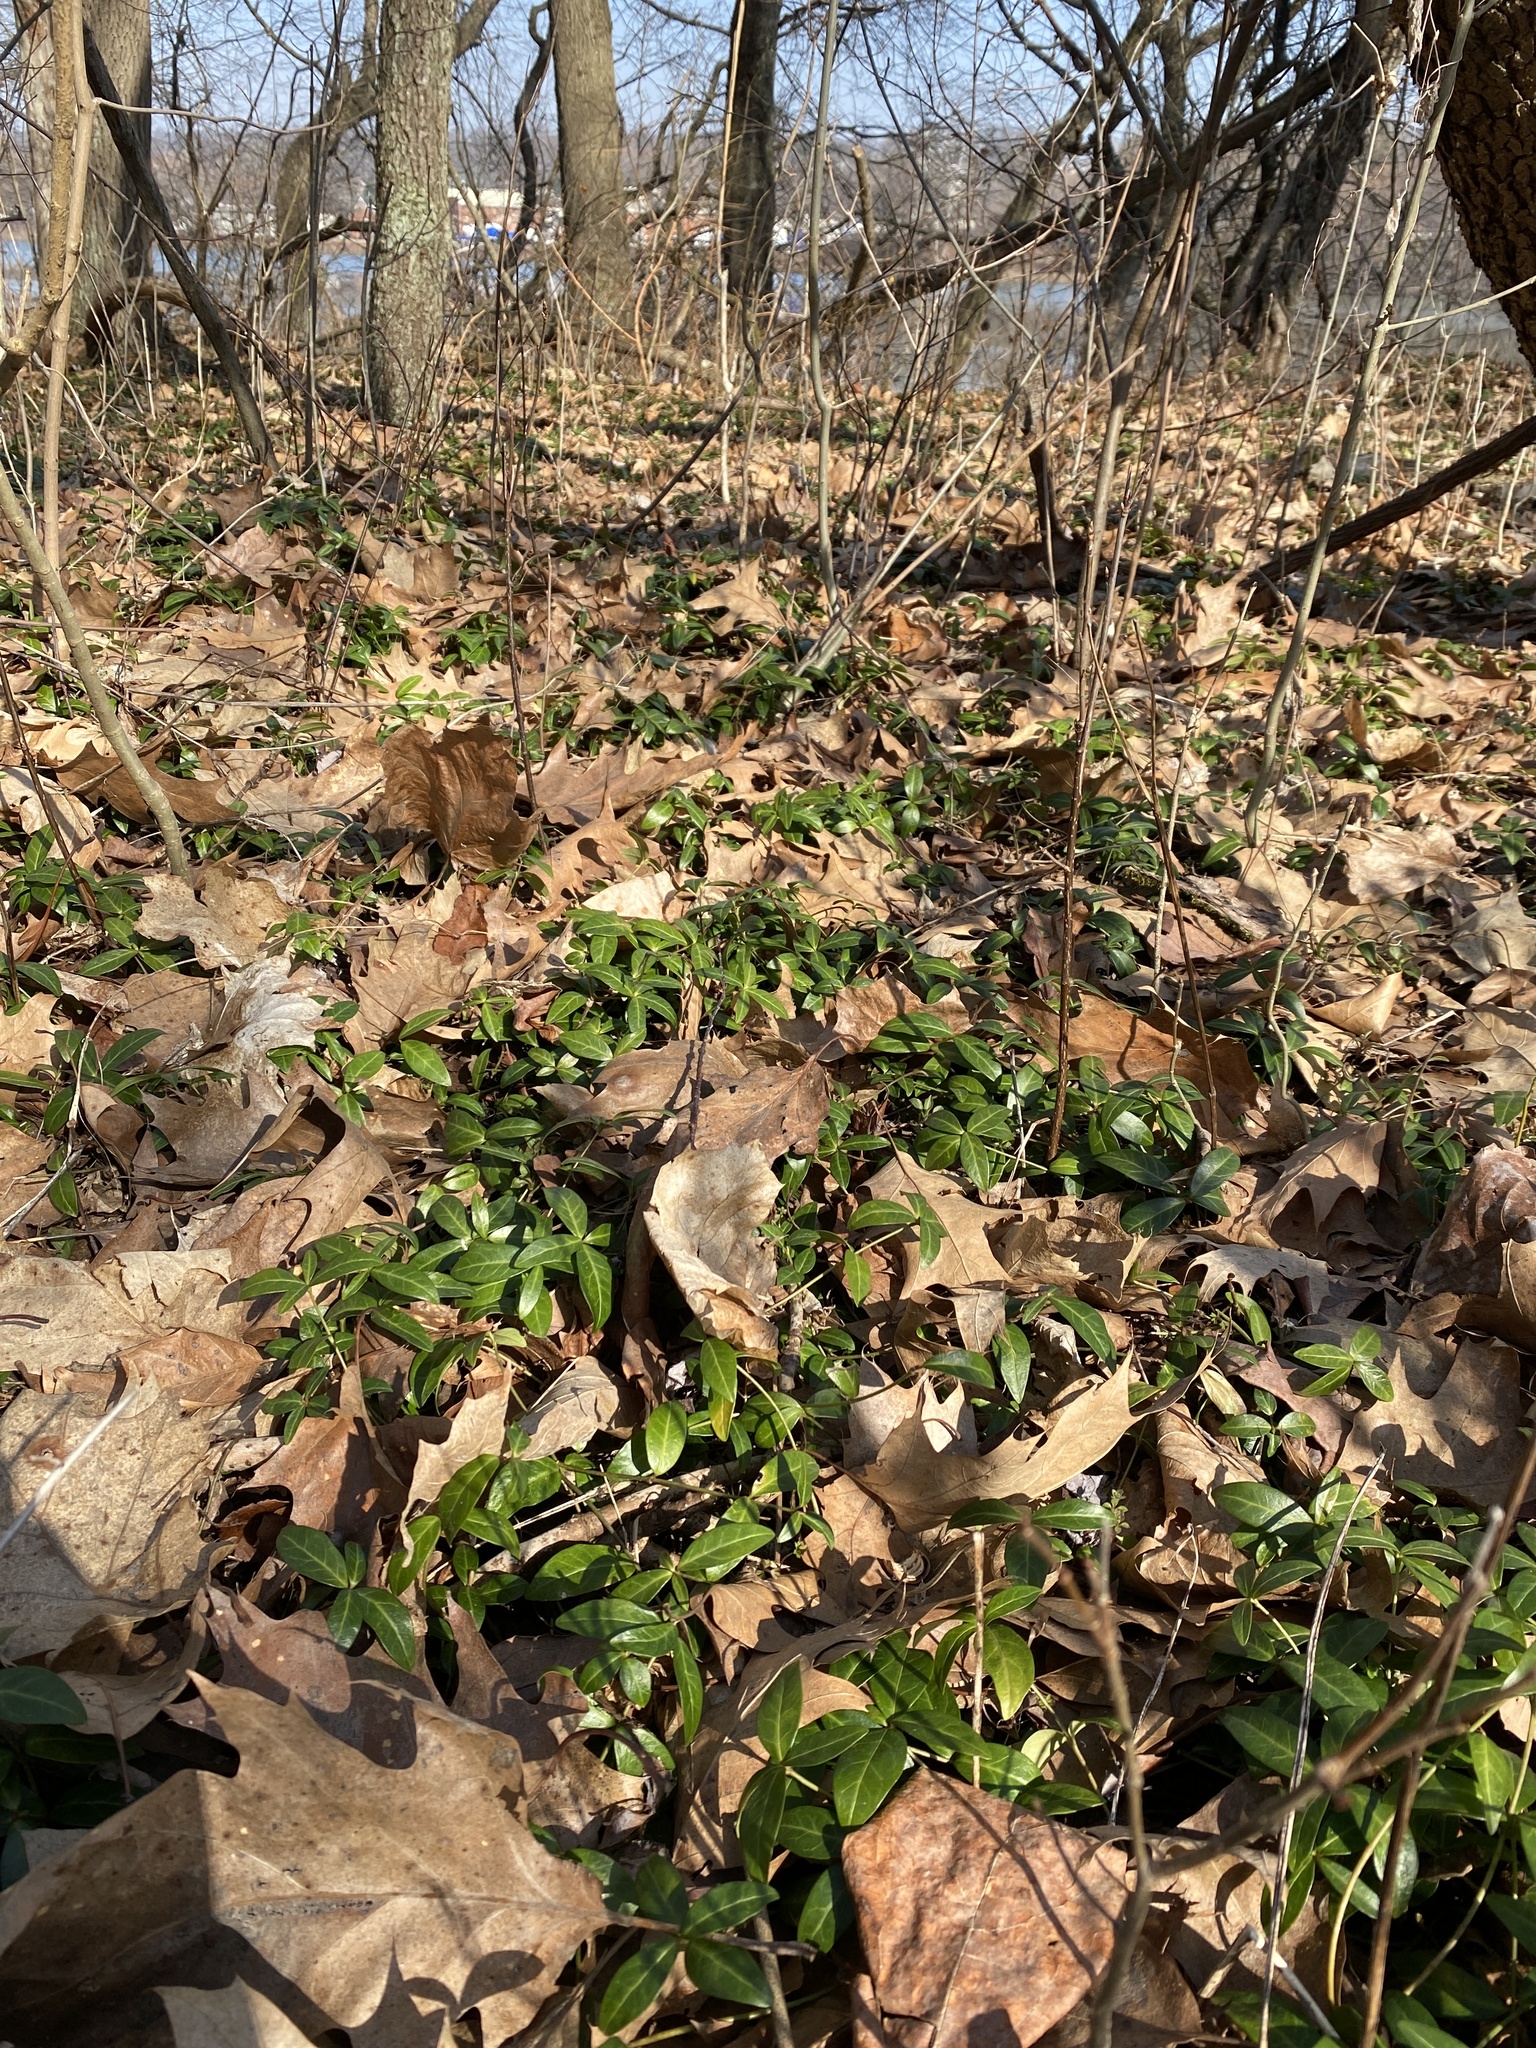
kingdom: Plantae
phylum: Tracheophyta
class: Magnoliopsida
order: Gentianales
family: Apocynaceae
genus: Vinca
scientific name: Vinca minor
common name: Lesser periwinkle
